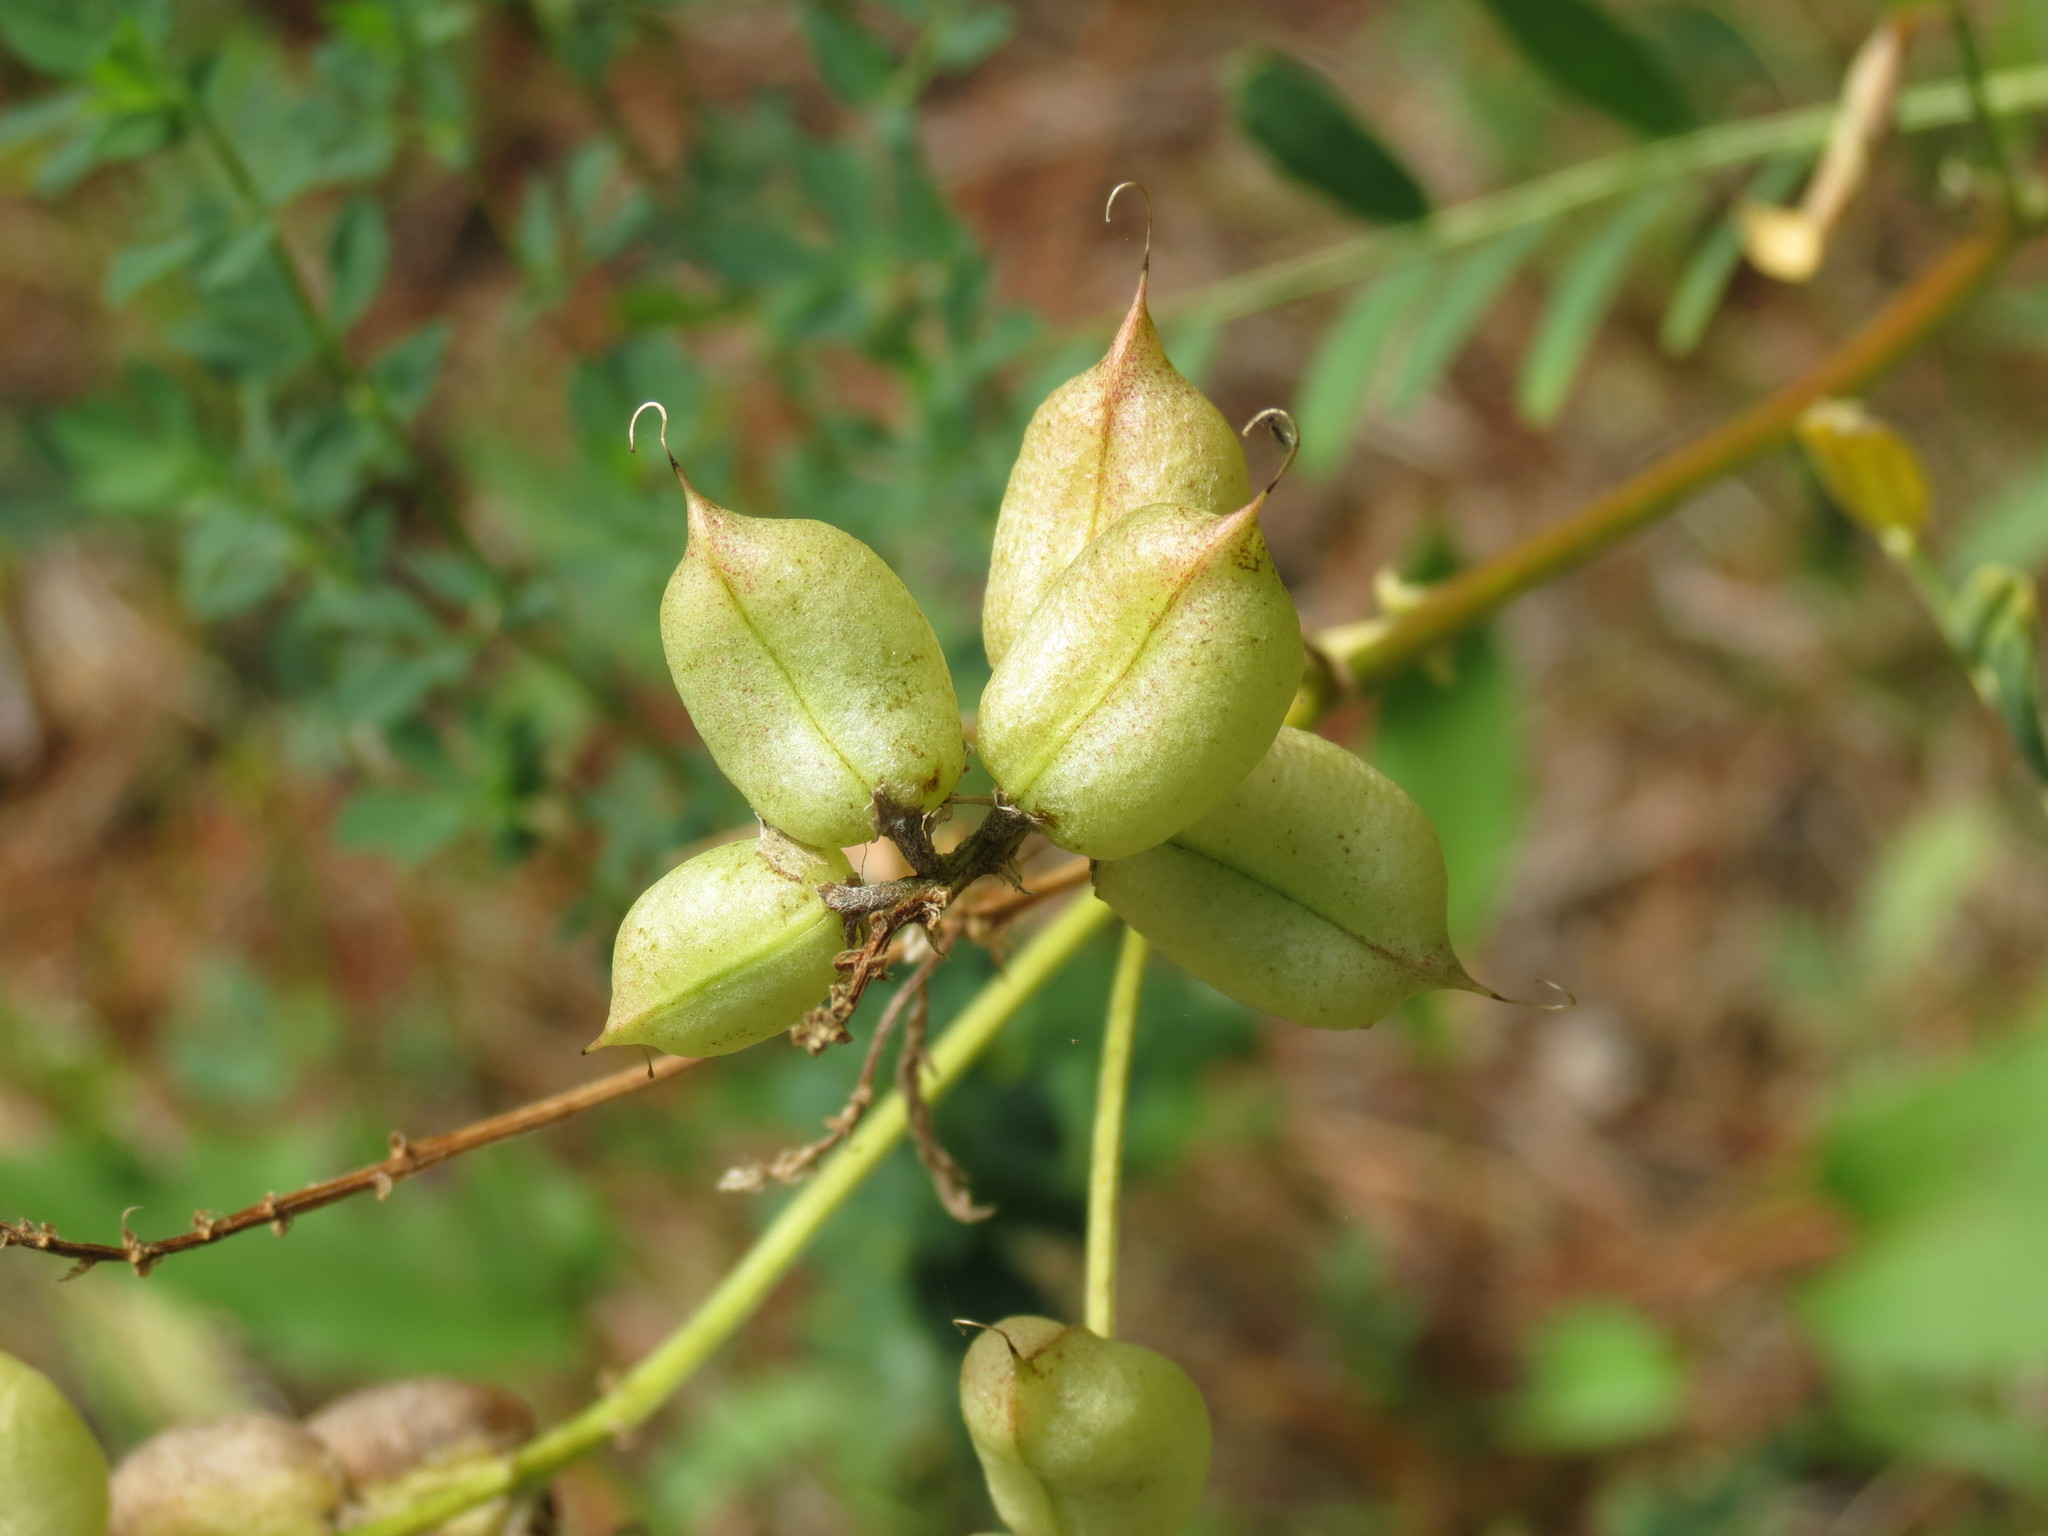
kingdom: Plantae
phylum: Tracheophyta
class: Magnoliopsida
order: Fabales
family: Fabaceae
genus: Astragalus
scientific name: Astragalus neglectus
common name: Cooper's milk-vetch
